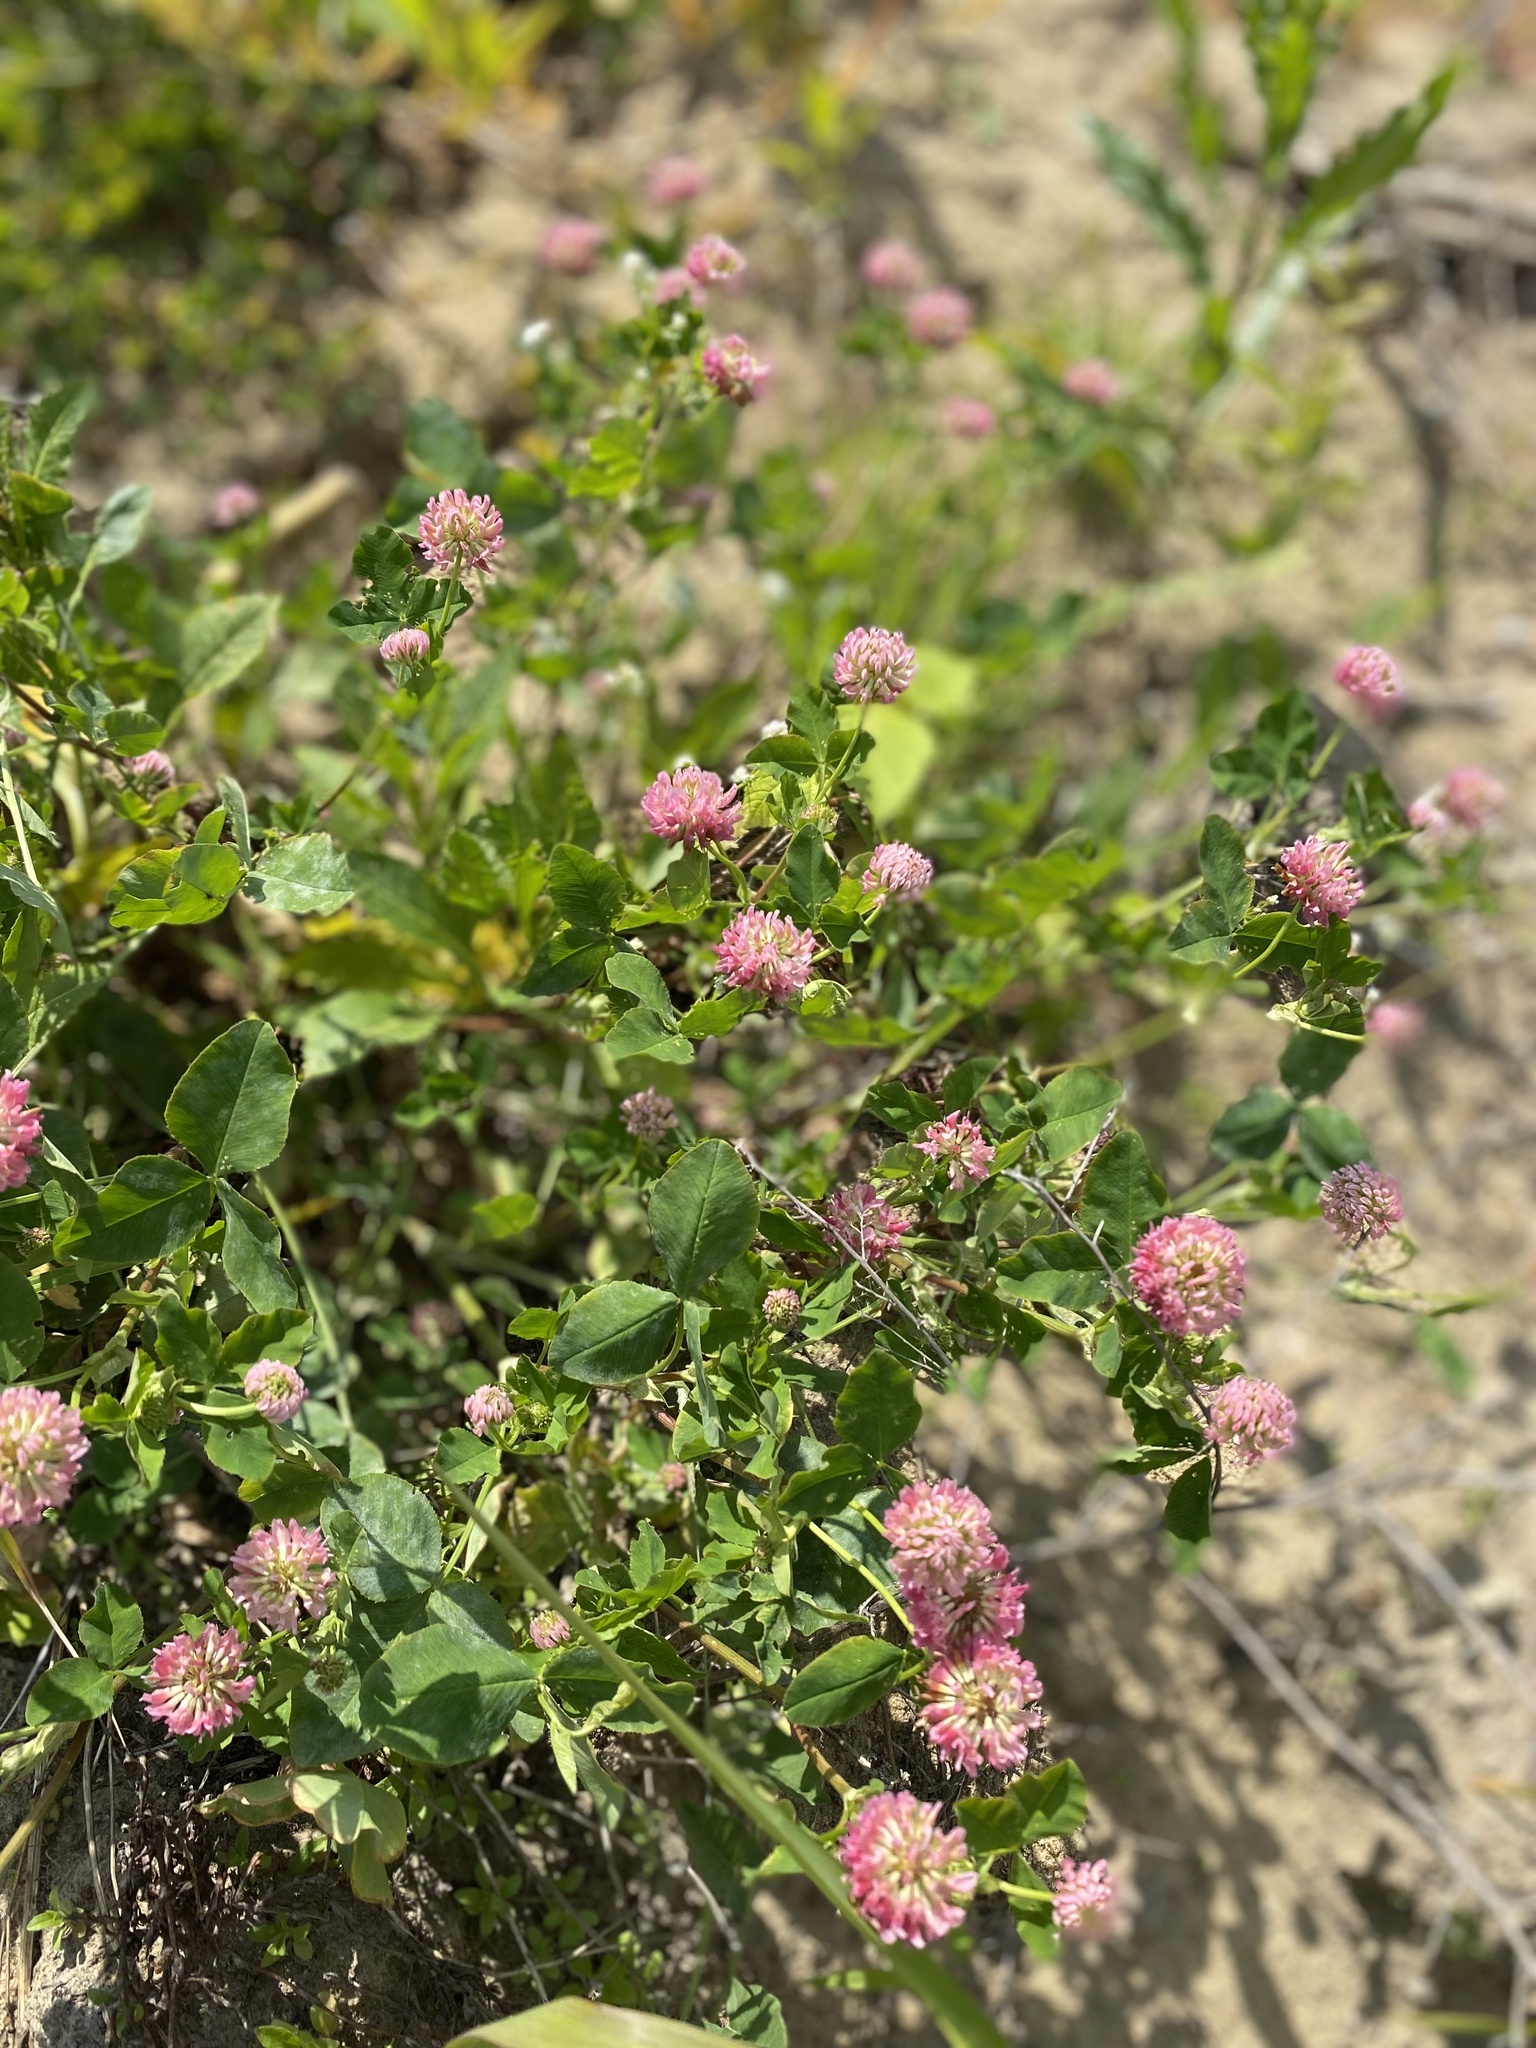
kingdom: Plantae
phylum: Tracheophyta
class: Magnoliopsida
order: Fabales
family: Fabaceae
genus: Trifolium
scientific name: Trifolium hybridum
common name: Alsike clover
